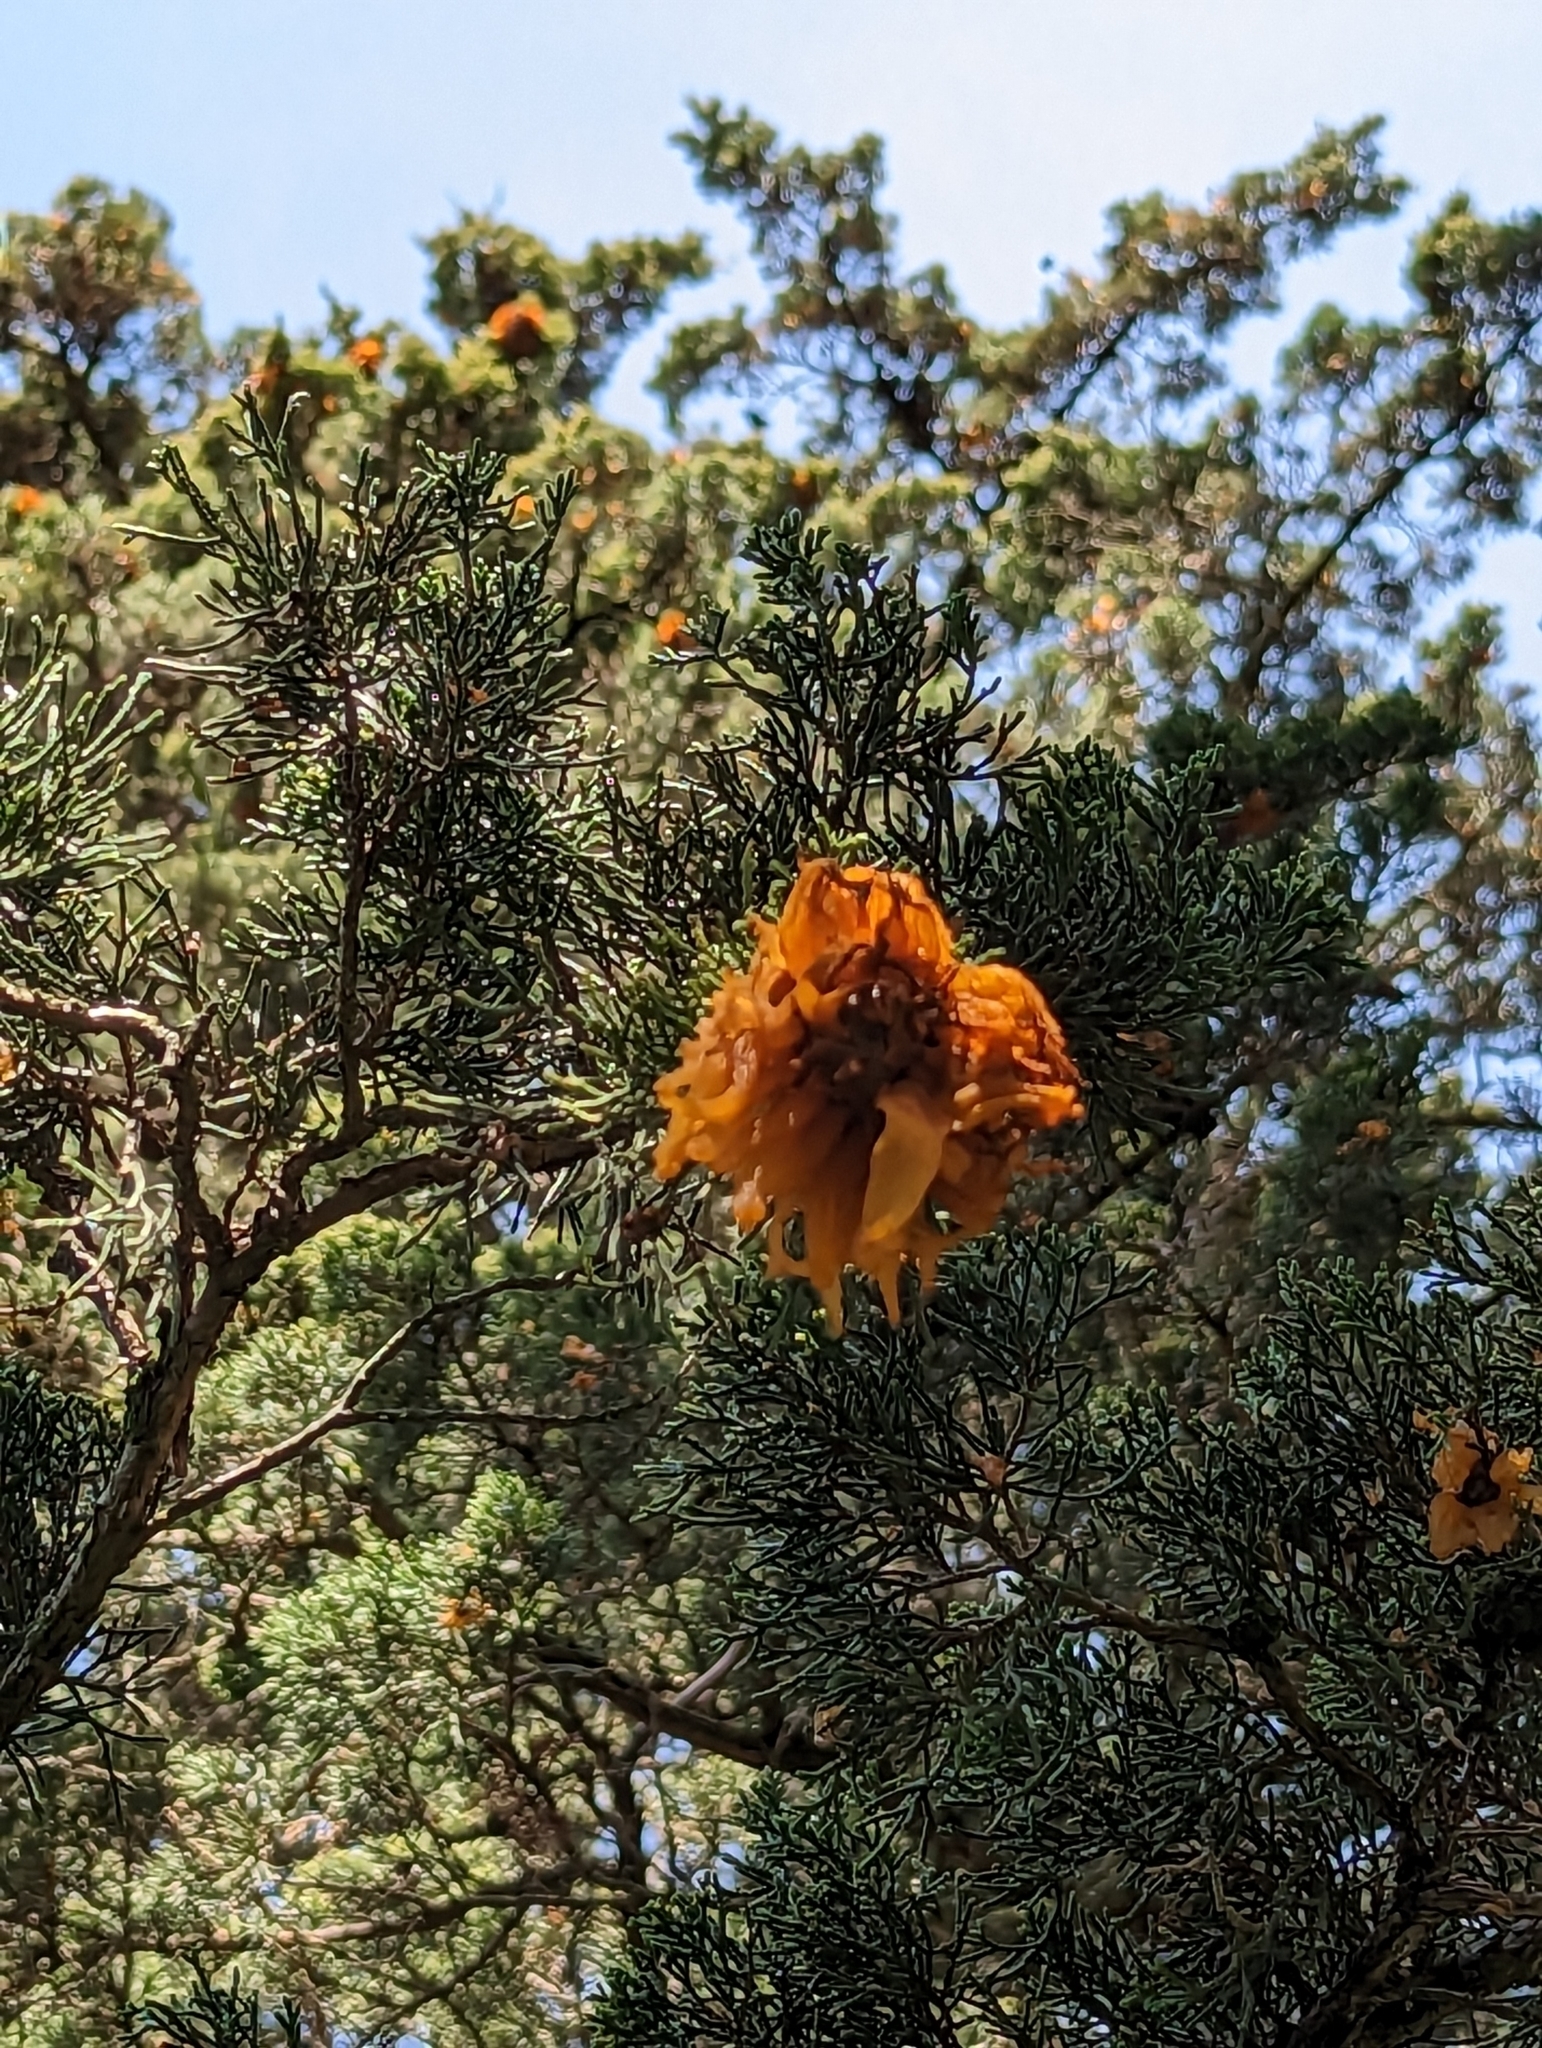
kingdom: Fungi
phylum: Basidiomycota
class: Pucciniomycetes
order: Pucciniales
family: Gymnosporangiaceae
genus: Gymnosporangium
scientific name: Gymnosporangium juniperi-virginianae
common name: Juniper-apple rust
